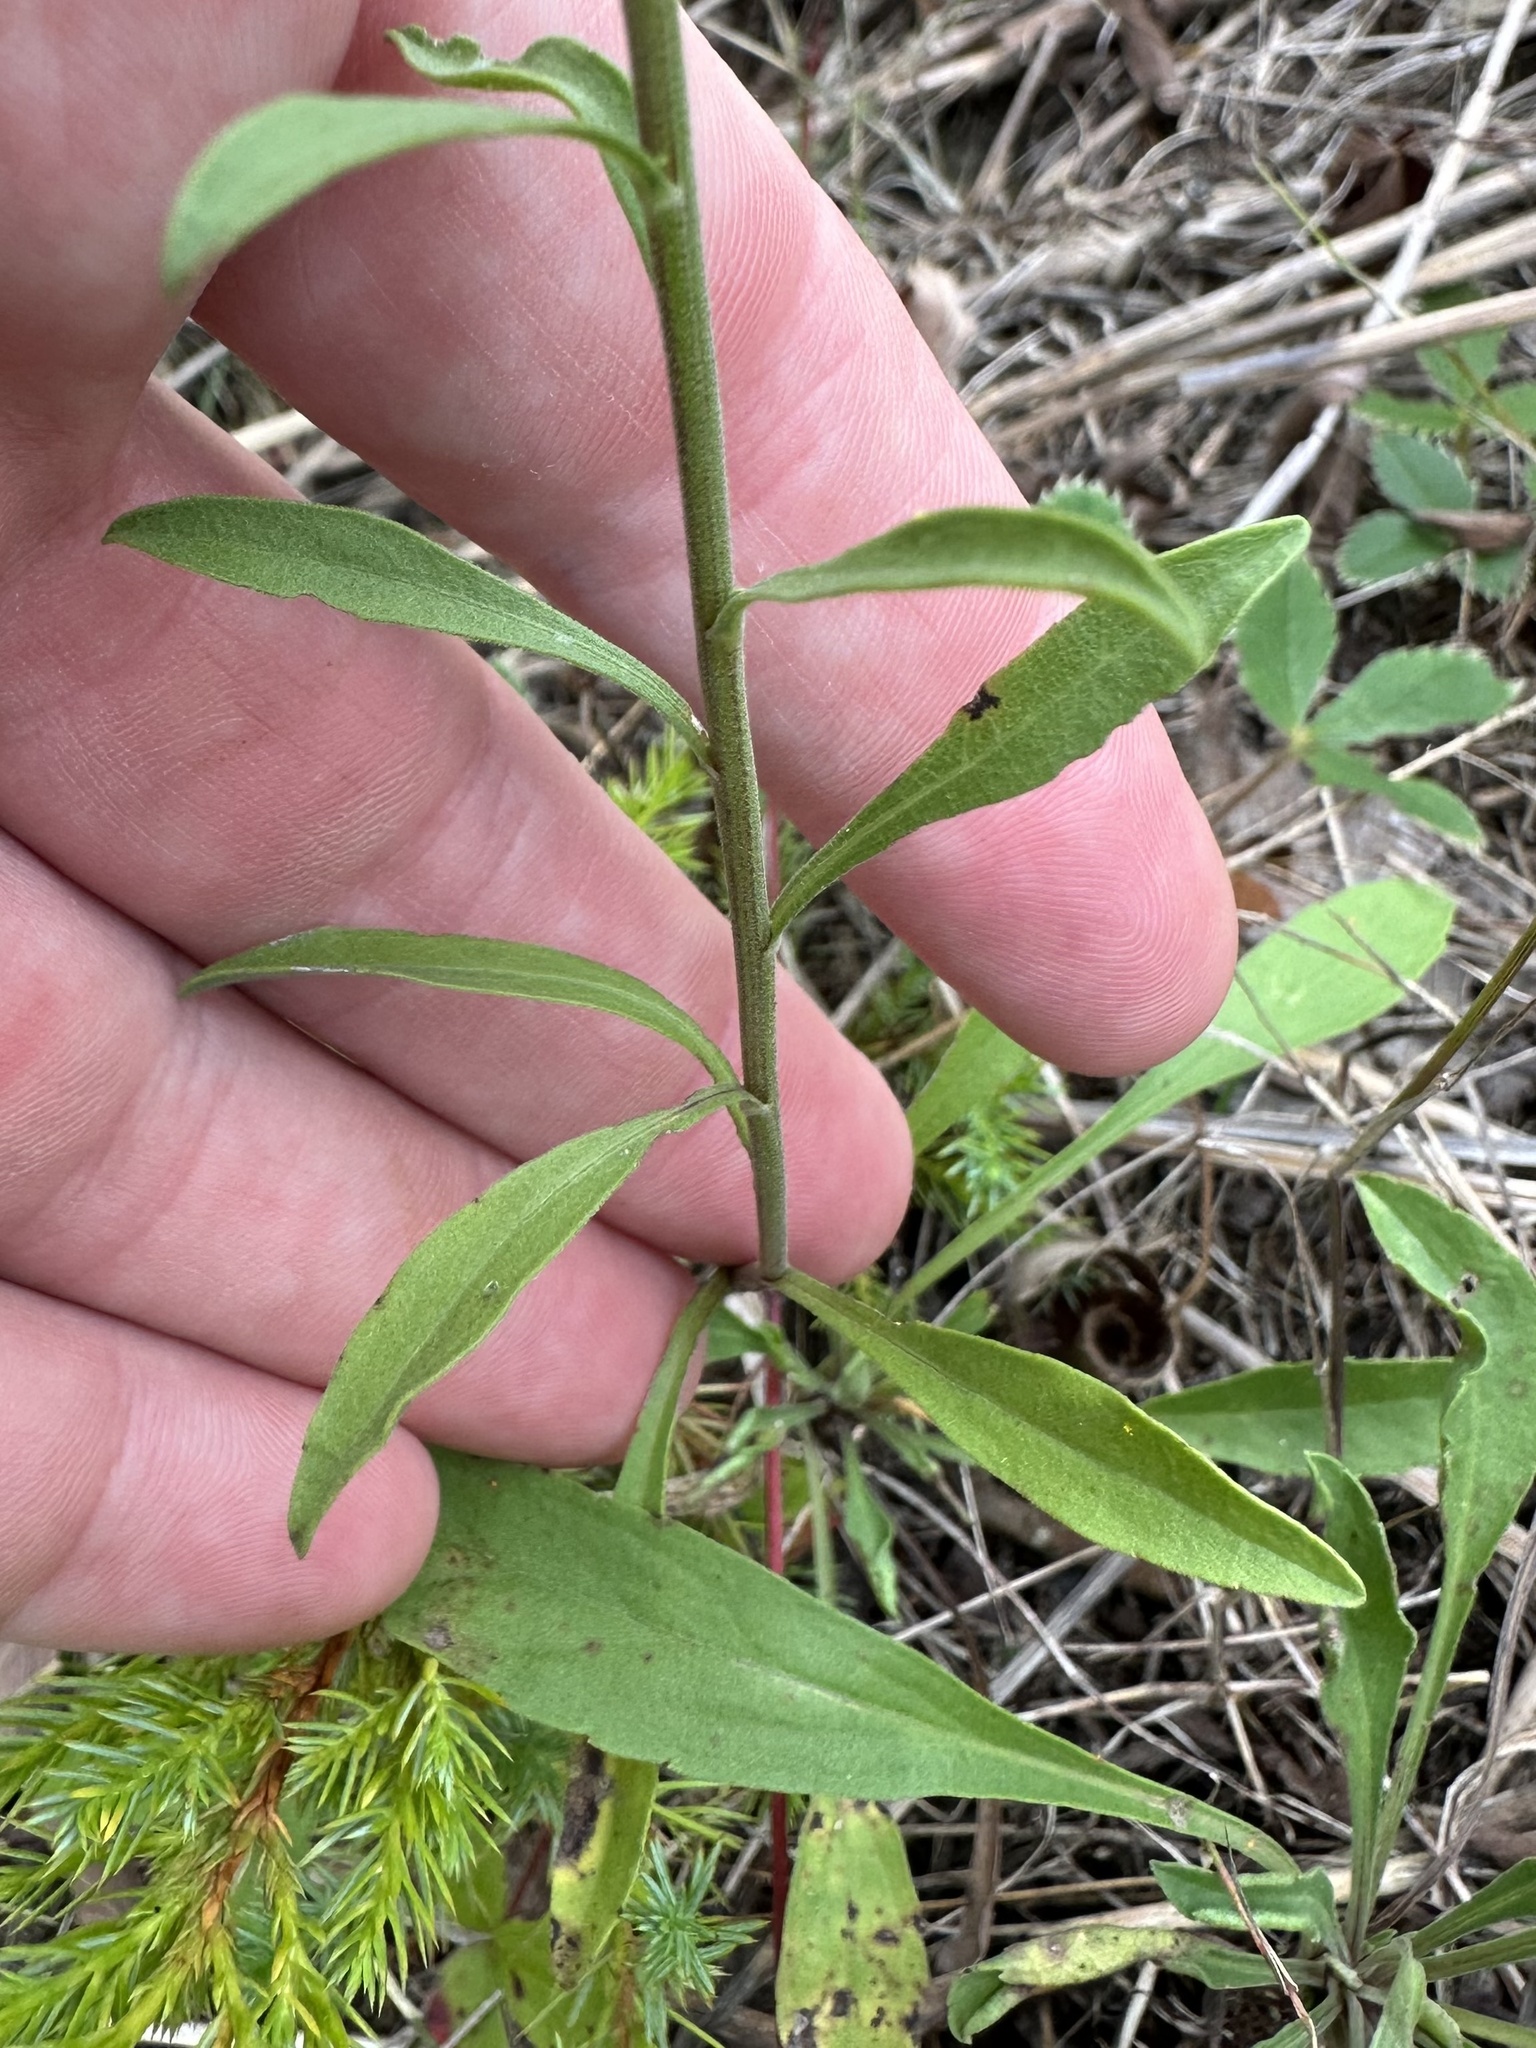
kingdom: Plantae
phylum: Tracheophyta
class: Magnoliopsida
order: Asterales
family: Asteraceae
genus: Solidago
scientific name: Solidago nemoralis
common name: Grey goldenrod
